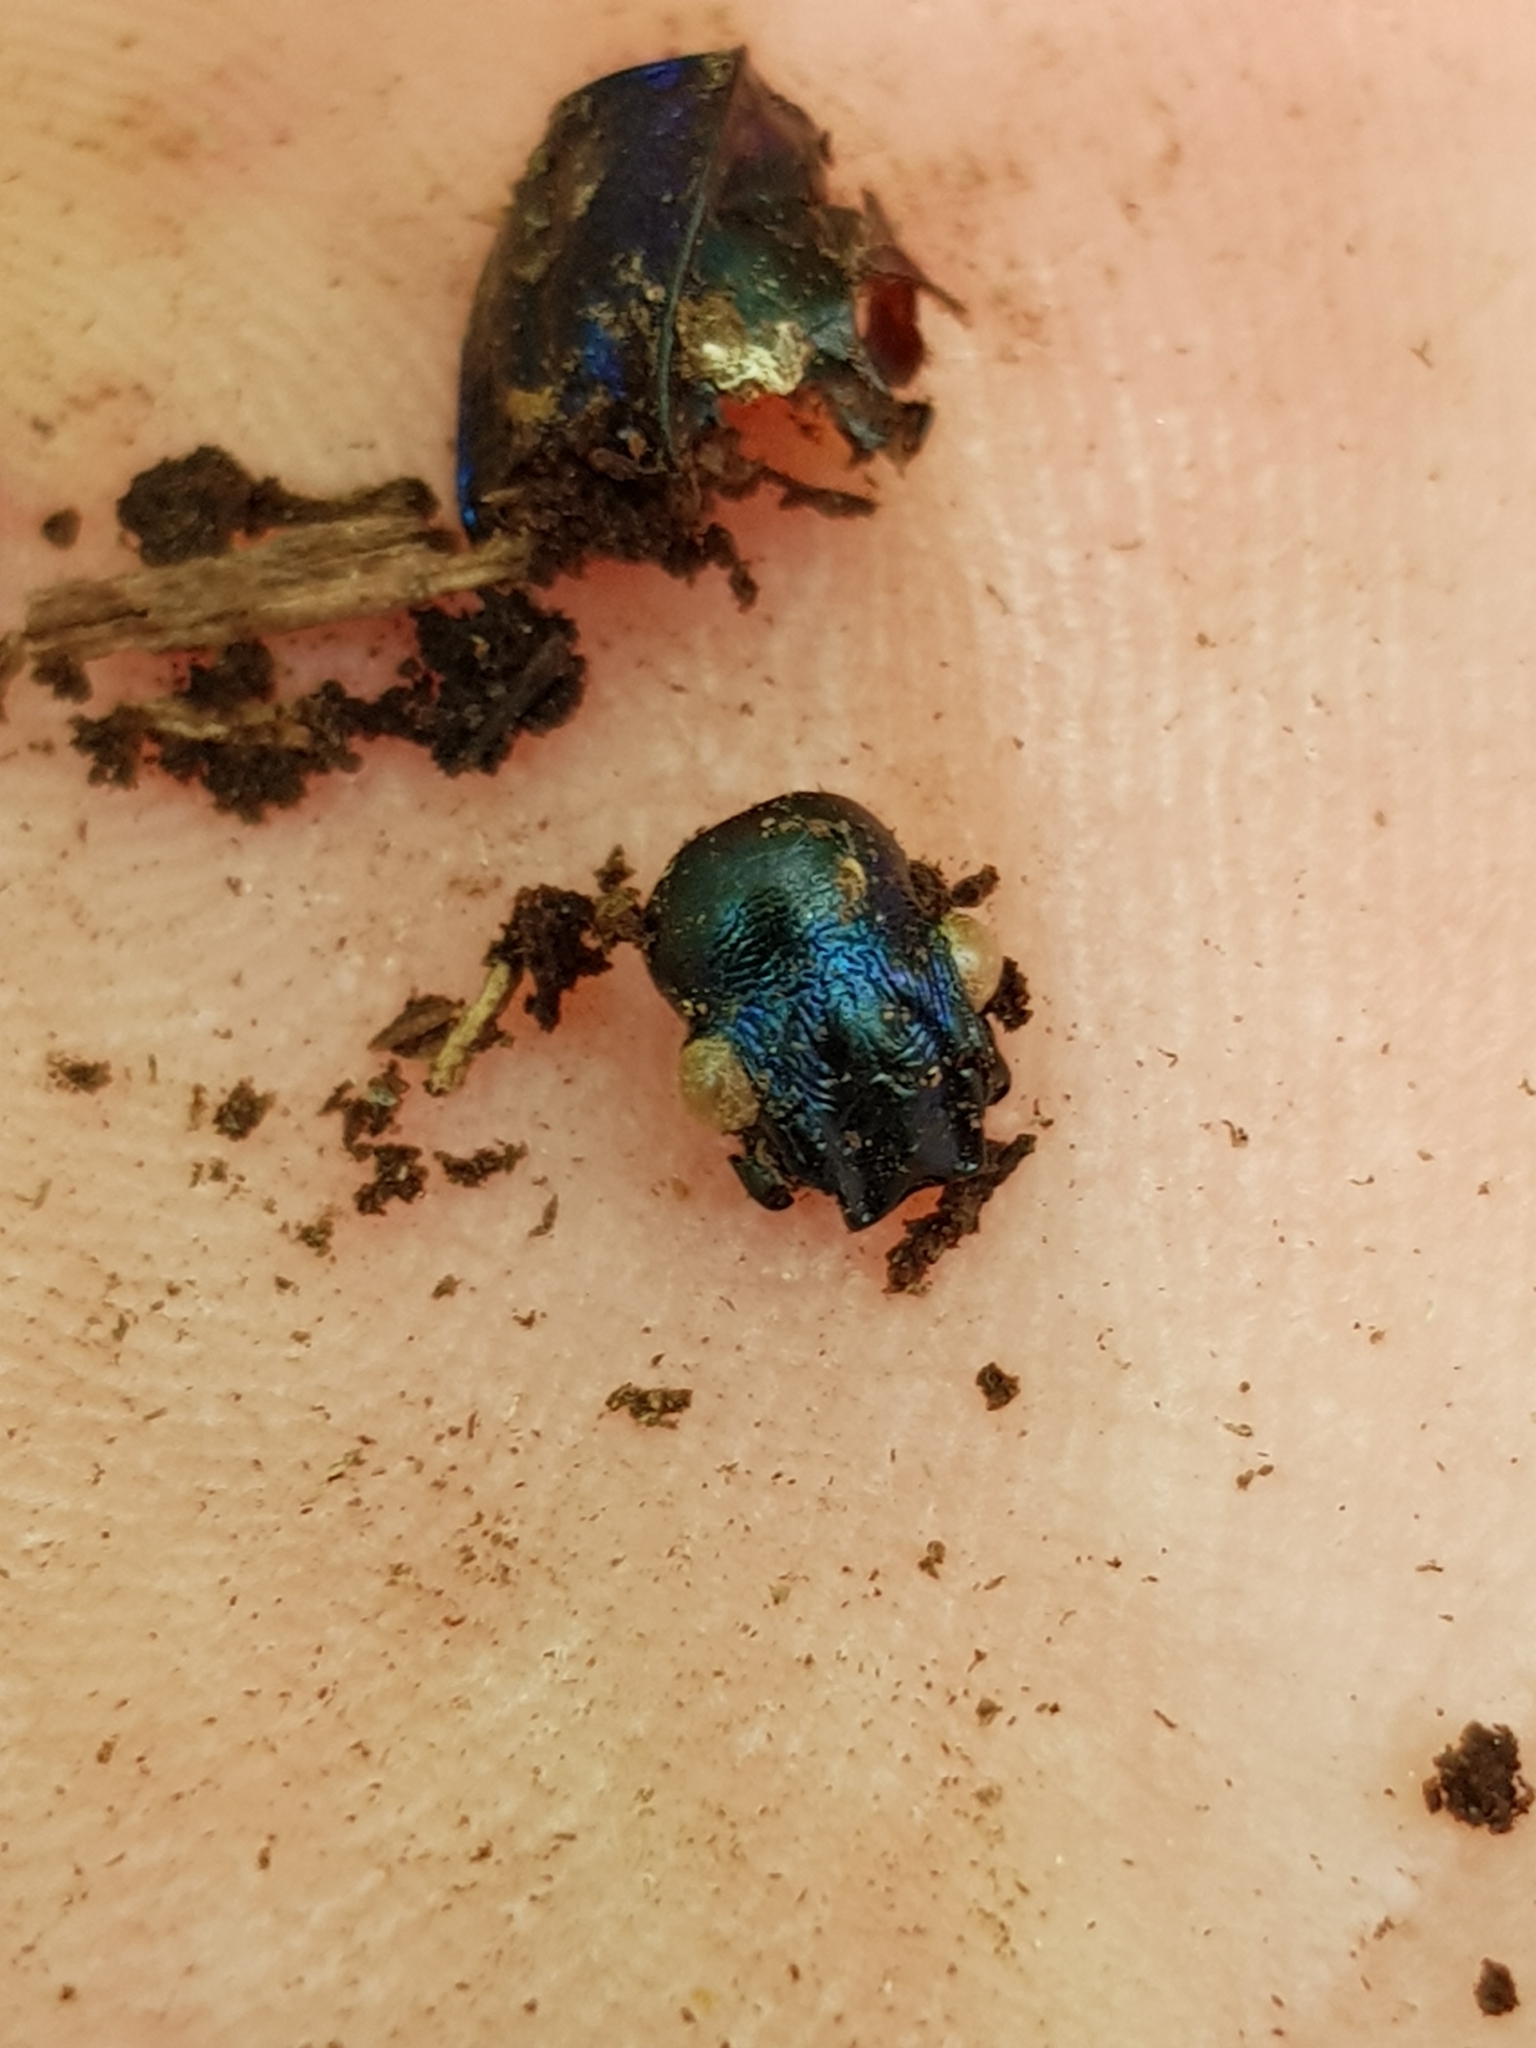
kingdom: Animalia
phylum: Arthropoda
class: Insecta
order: Coleoptera
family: Carabidae
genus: Carabus
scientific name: Carabus intricatus
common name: Blue ground beetle
